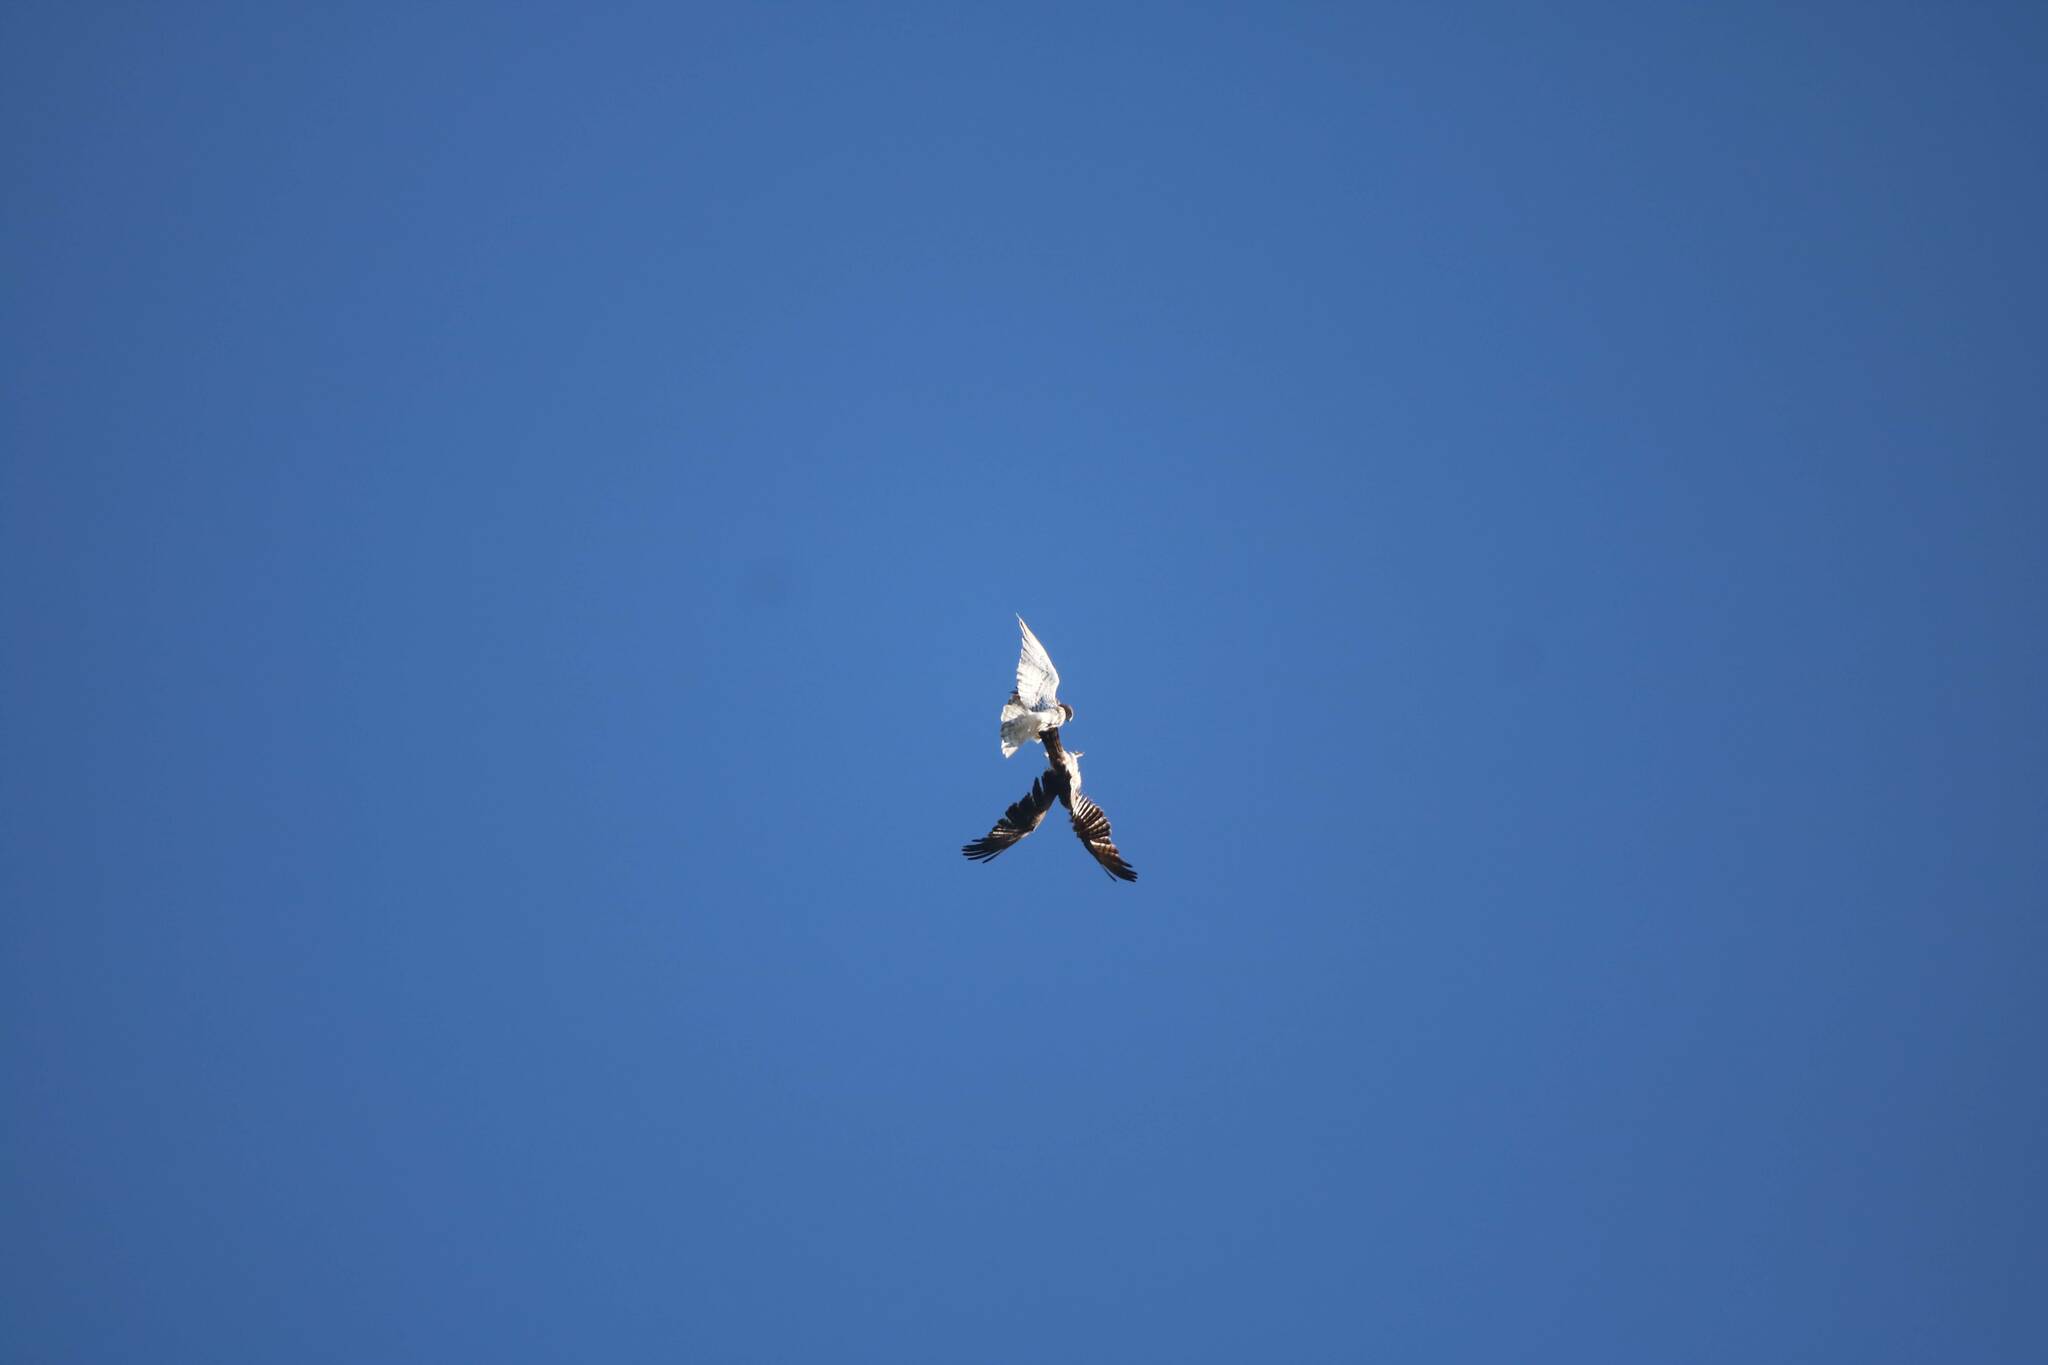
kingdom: Animalia
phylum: Chordata
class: Aves
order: Accipitriformes
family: Accipitridae
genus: Circaetus
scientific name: Circaetus gallicus
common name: Short-toed snake eagle
